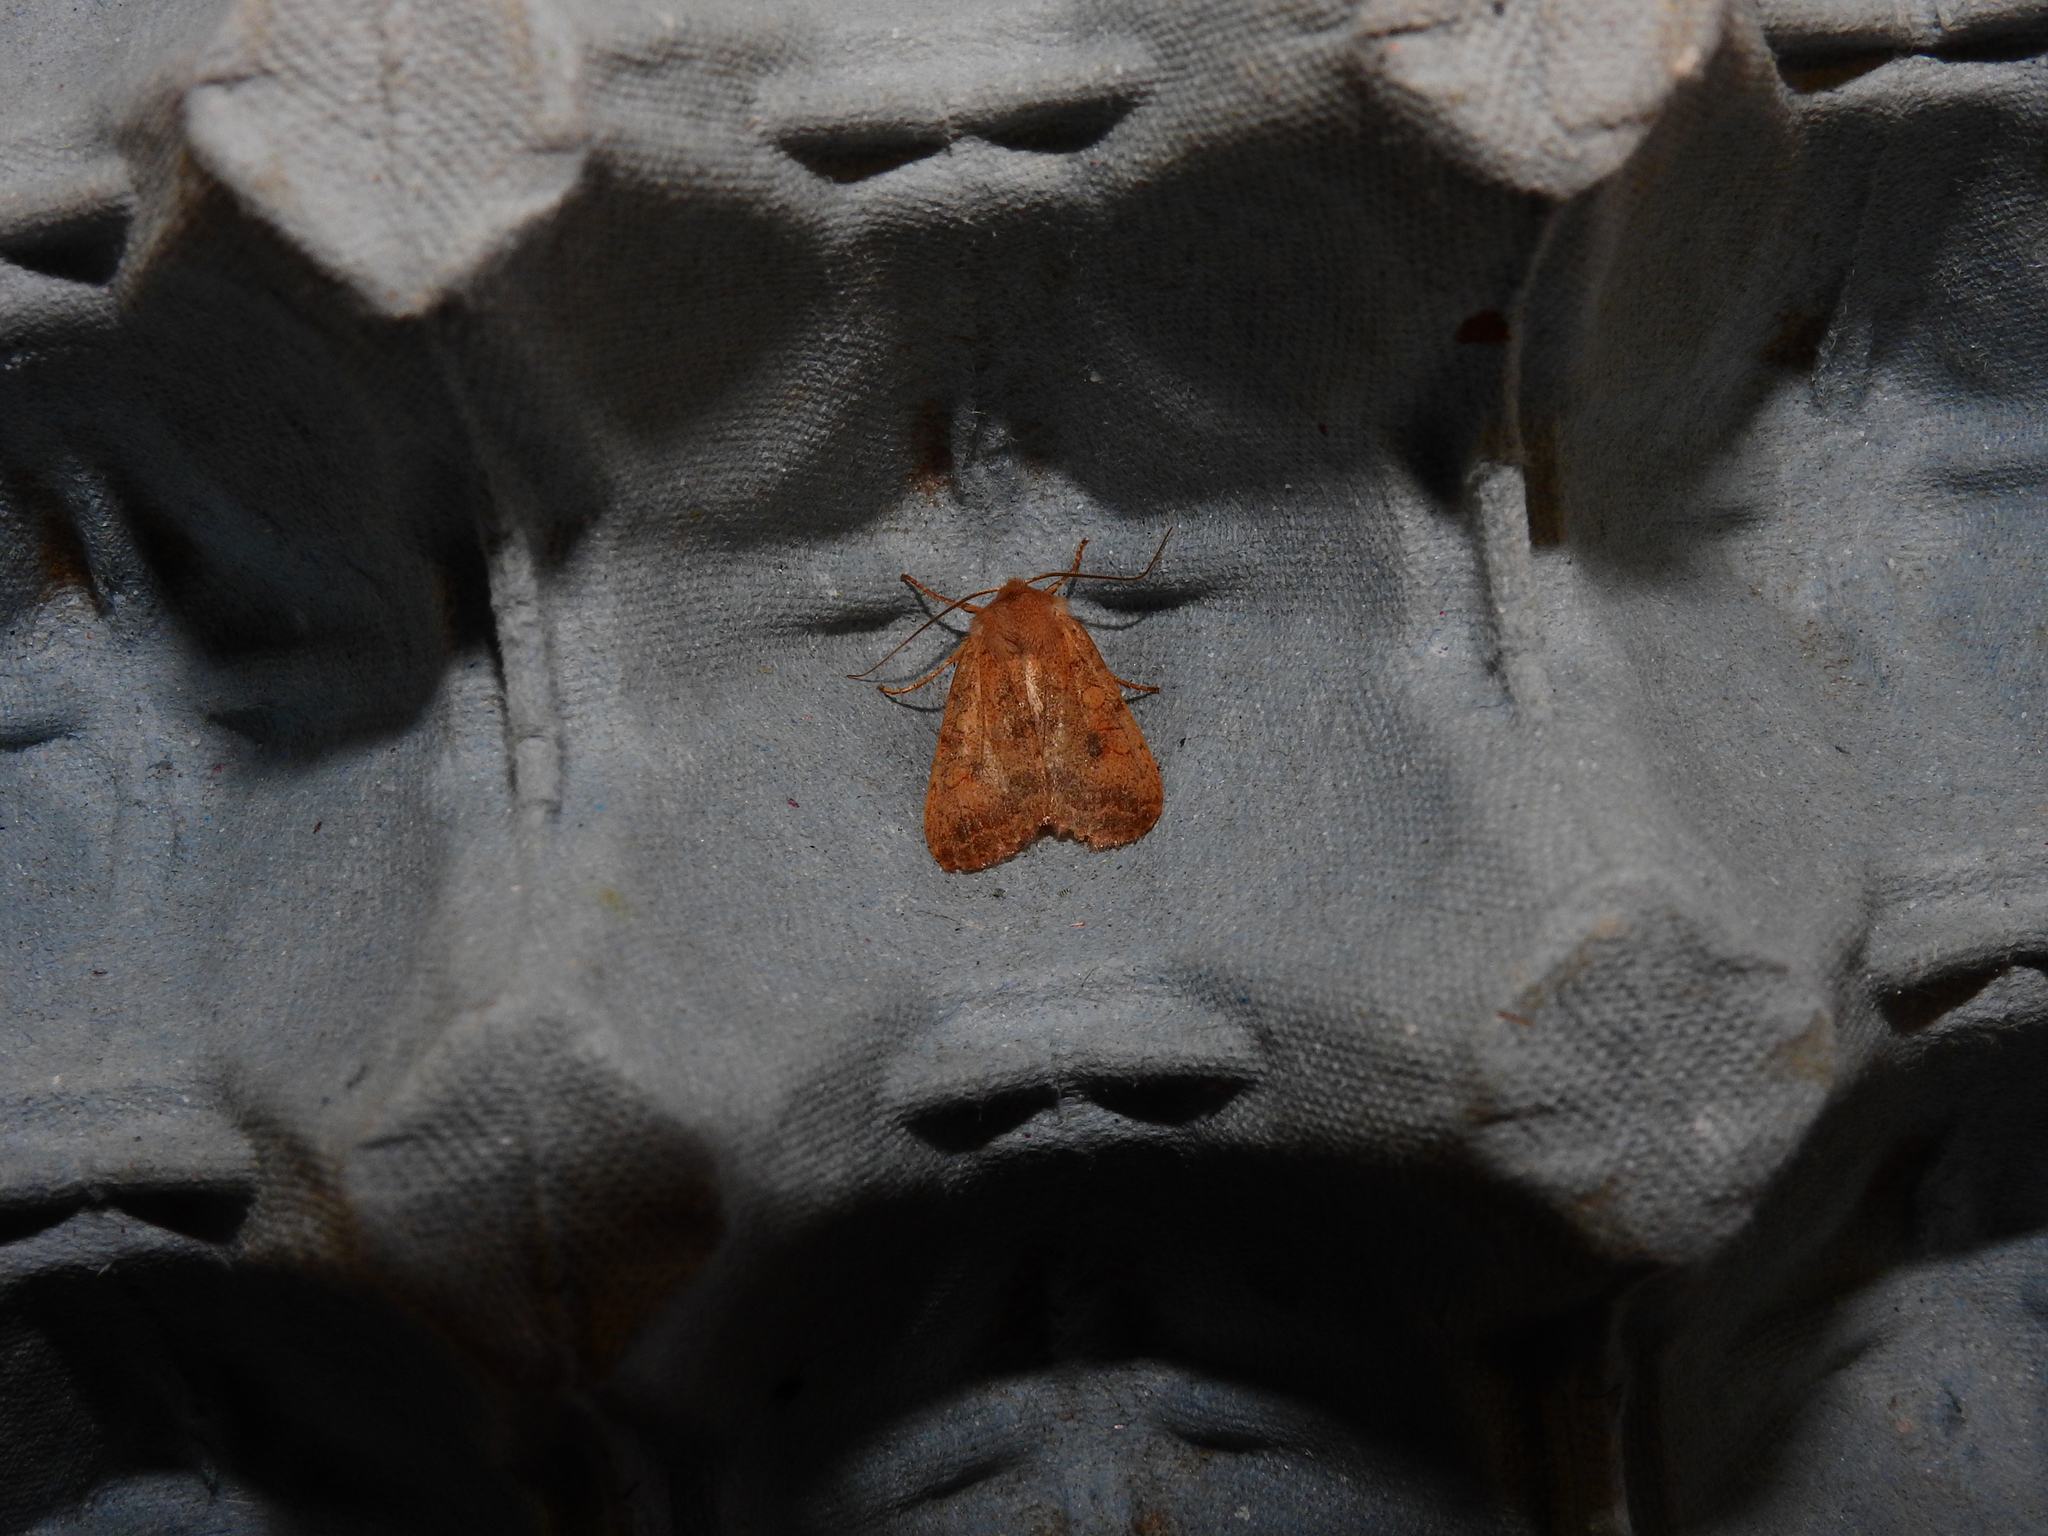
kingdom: Animalia
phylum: Arthropoda
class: Insecta
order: Lepidoptera
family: Noctuidae
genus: Sunira
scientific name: Sunira circellaris
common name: Brick
